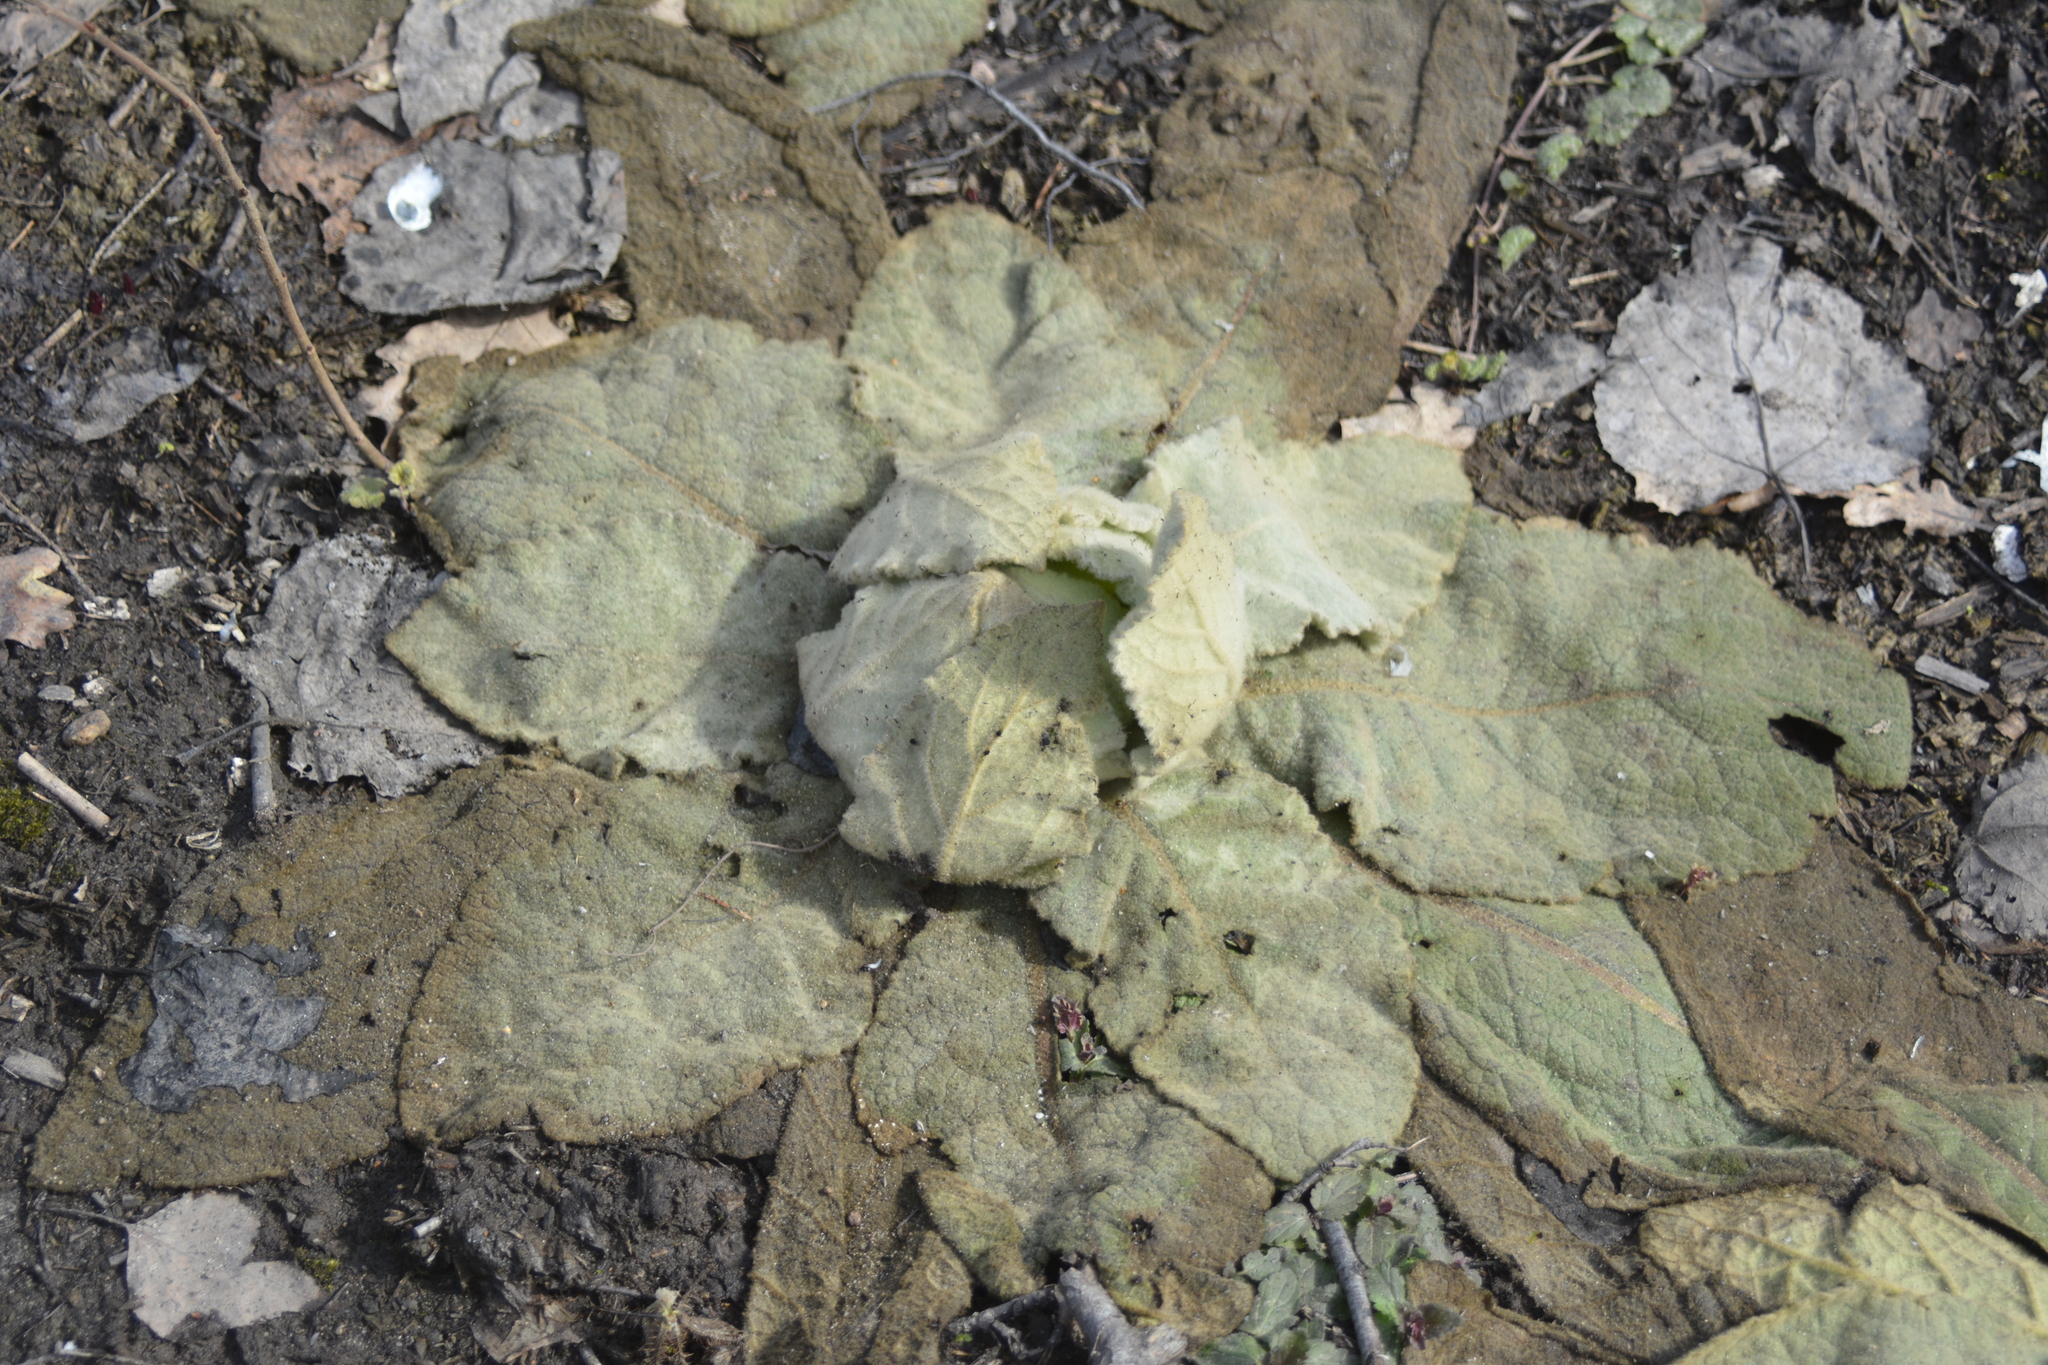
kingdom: Plantae
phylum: Tracheophyta
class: Magnoliopsida
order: Lamiales
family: Scrophulariaceae
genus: Verbascum
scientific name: Verbascum thapsus
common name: Common mullein
